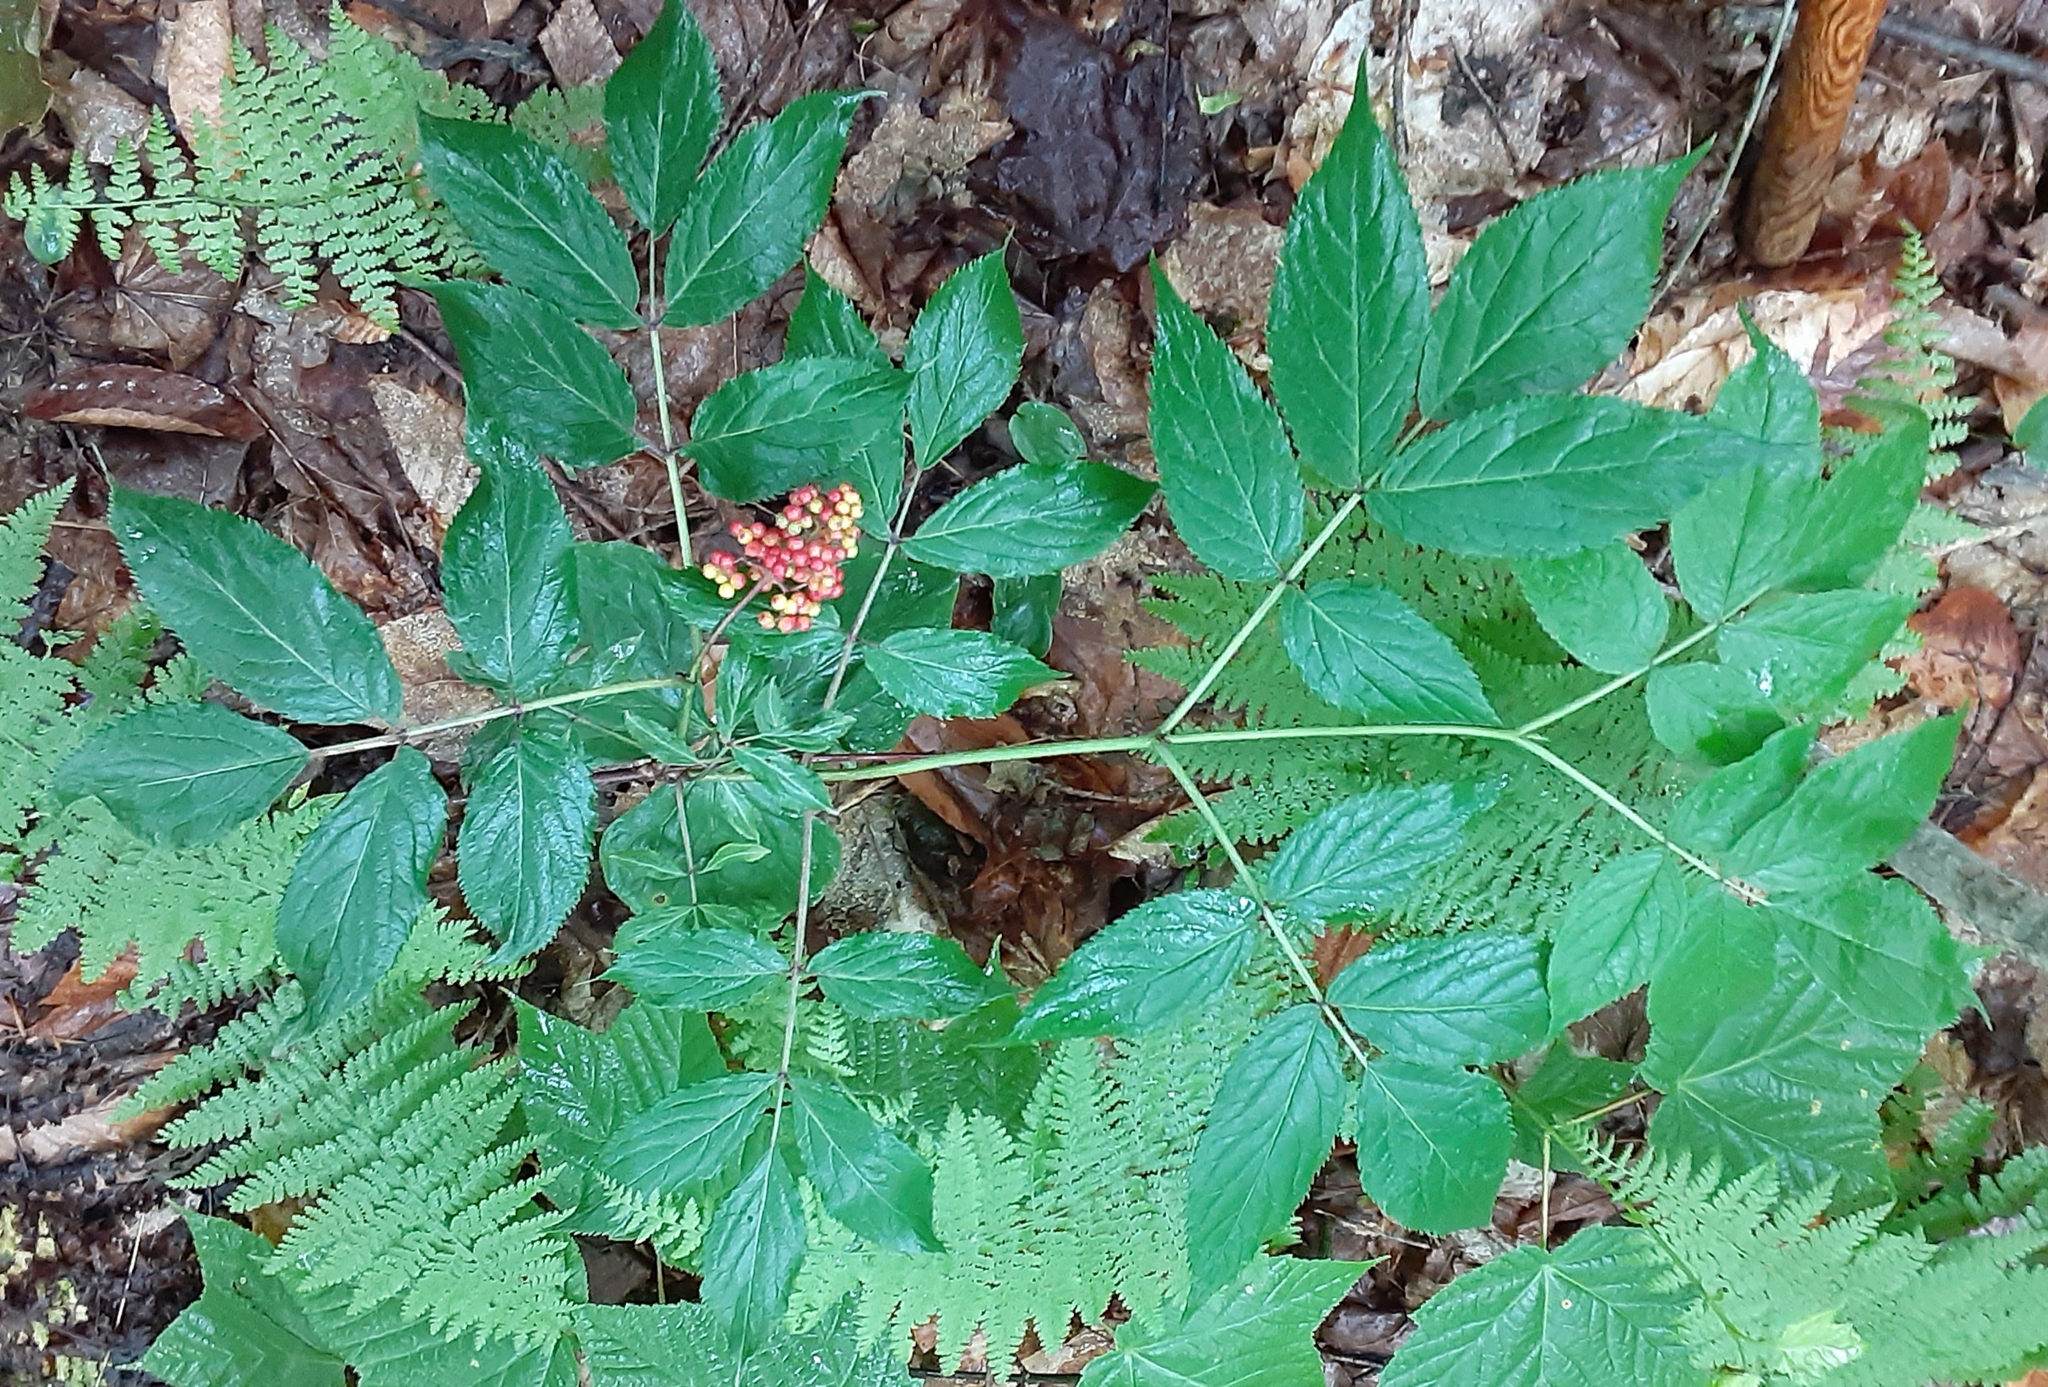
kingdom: Plantae
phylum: Tracheophyta
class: Magnoliopsida
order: Dipsacales
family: Viburnaceae
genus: Sambucus
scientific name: Sambucus racemosa
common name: Red-berried elder
